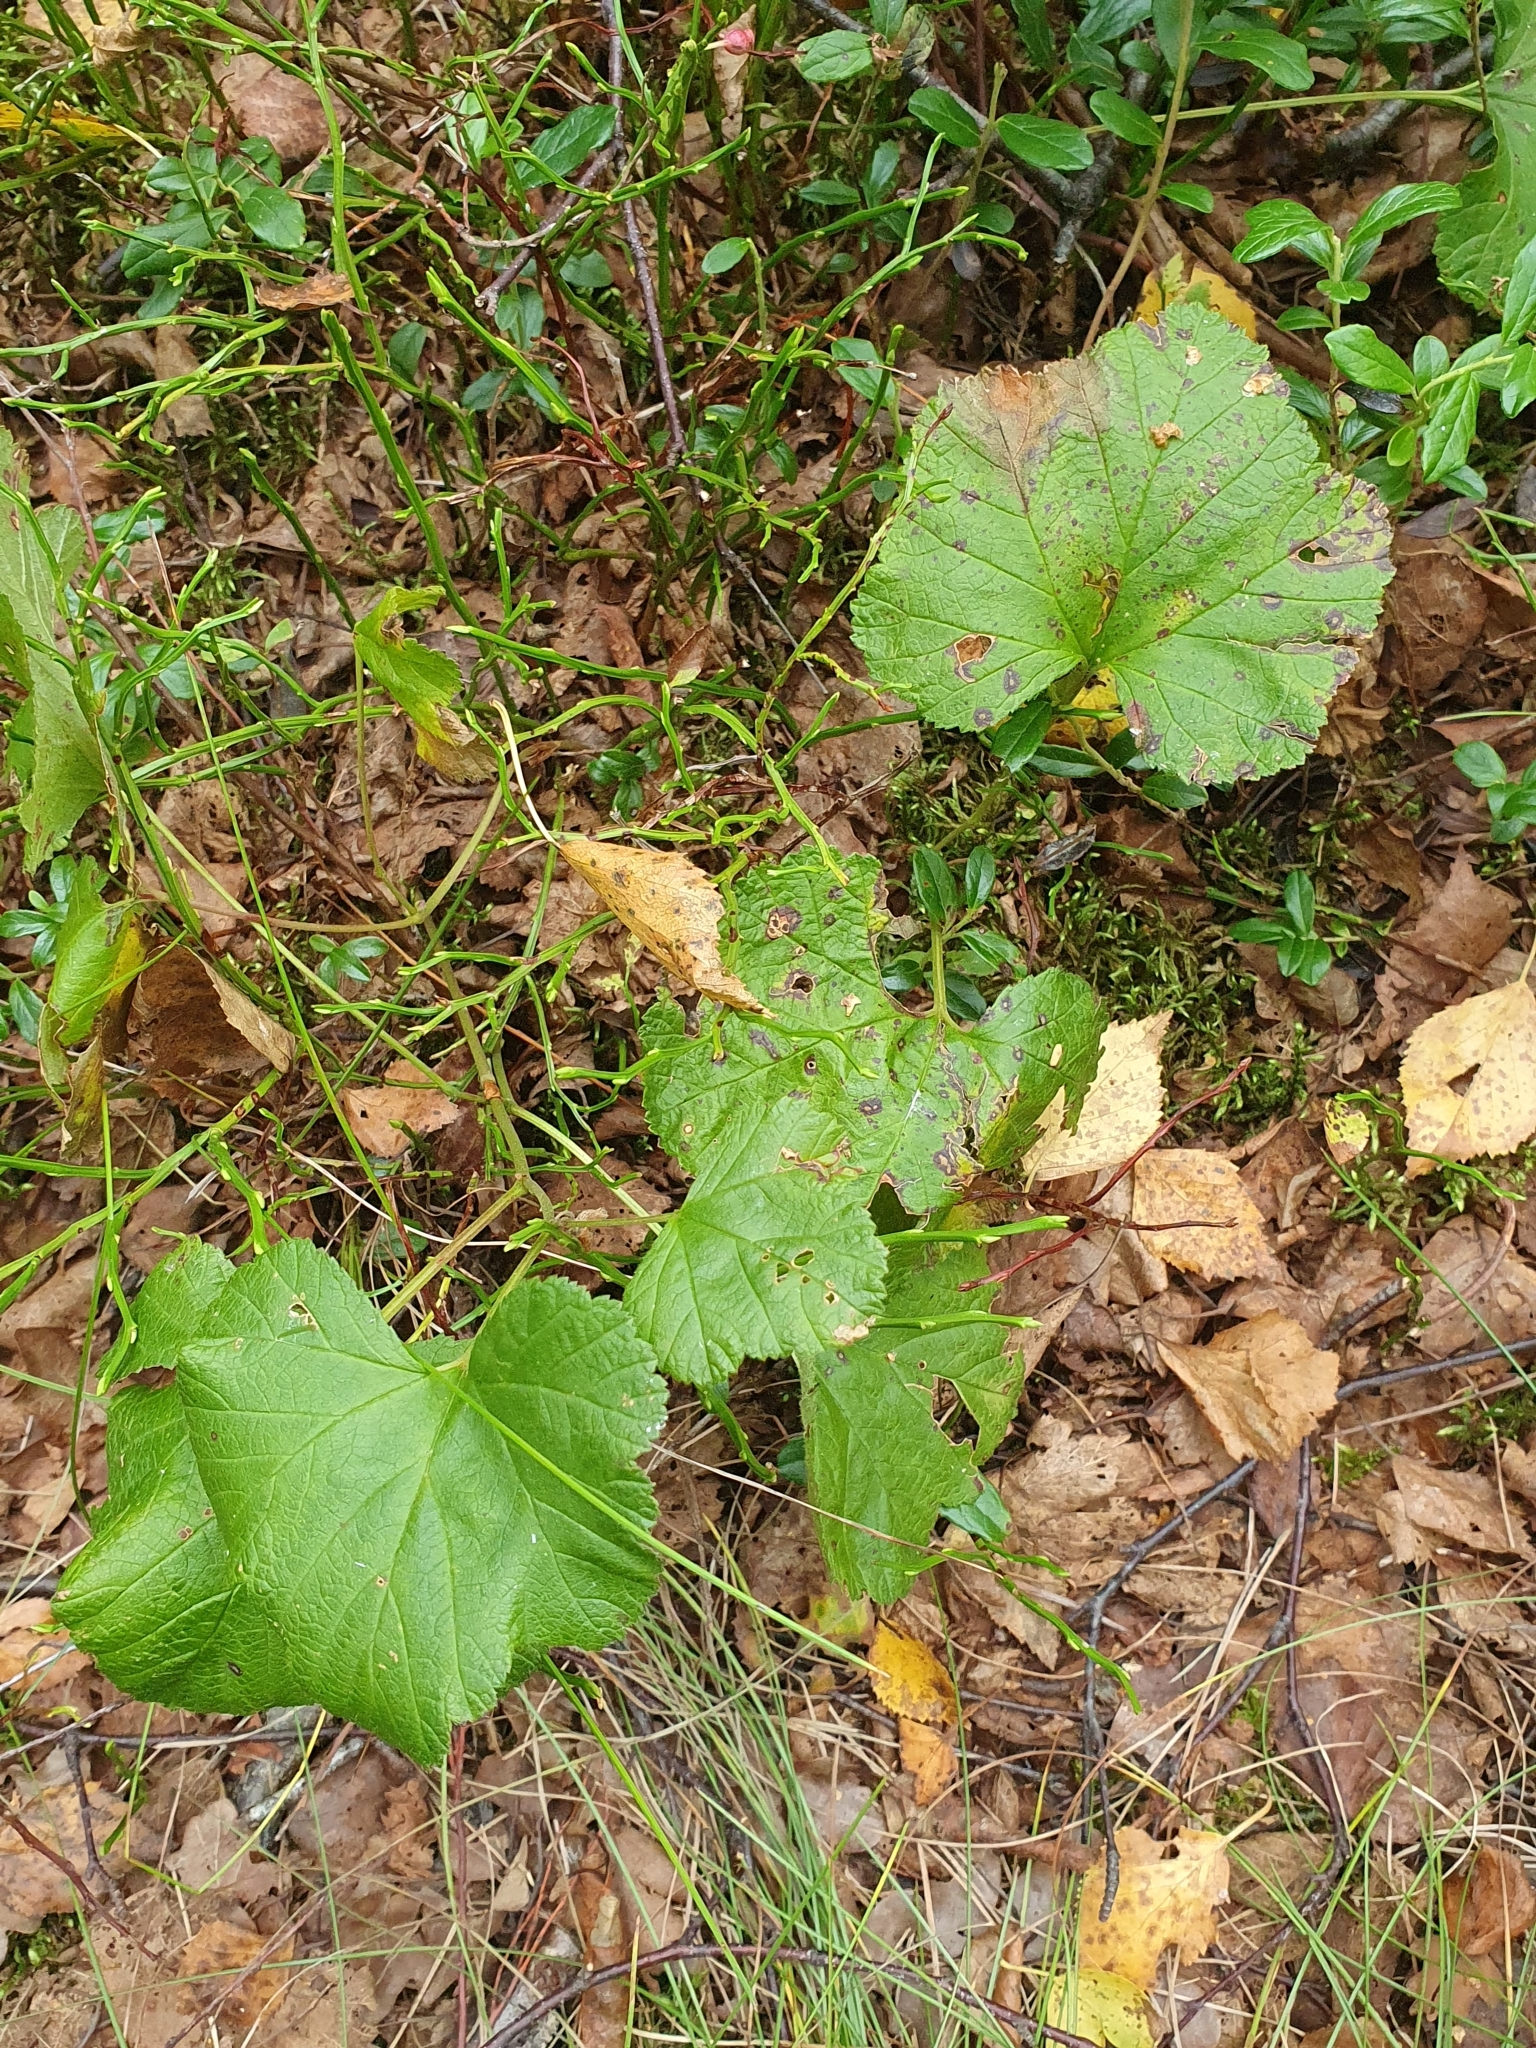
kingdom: Plantae
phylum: Tracheophyta
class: Magnoliopsida
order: Rosales
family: Rosaceae
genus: Rubus
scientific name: Rubus chamaemorus
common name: Cloudberry
